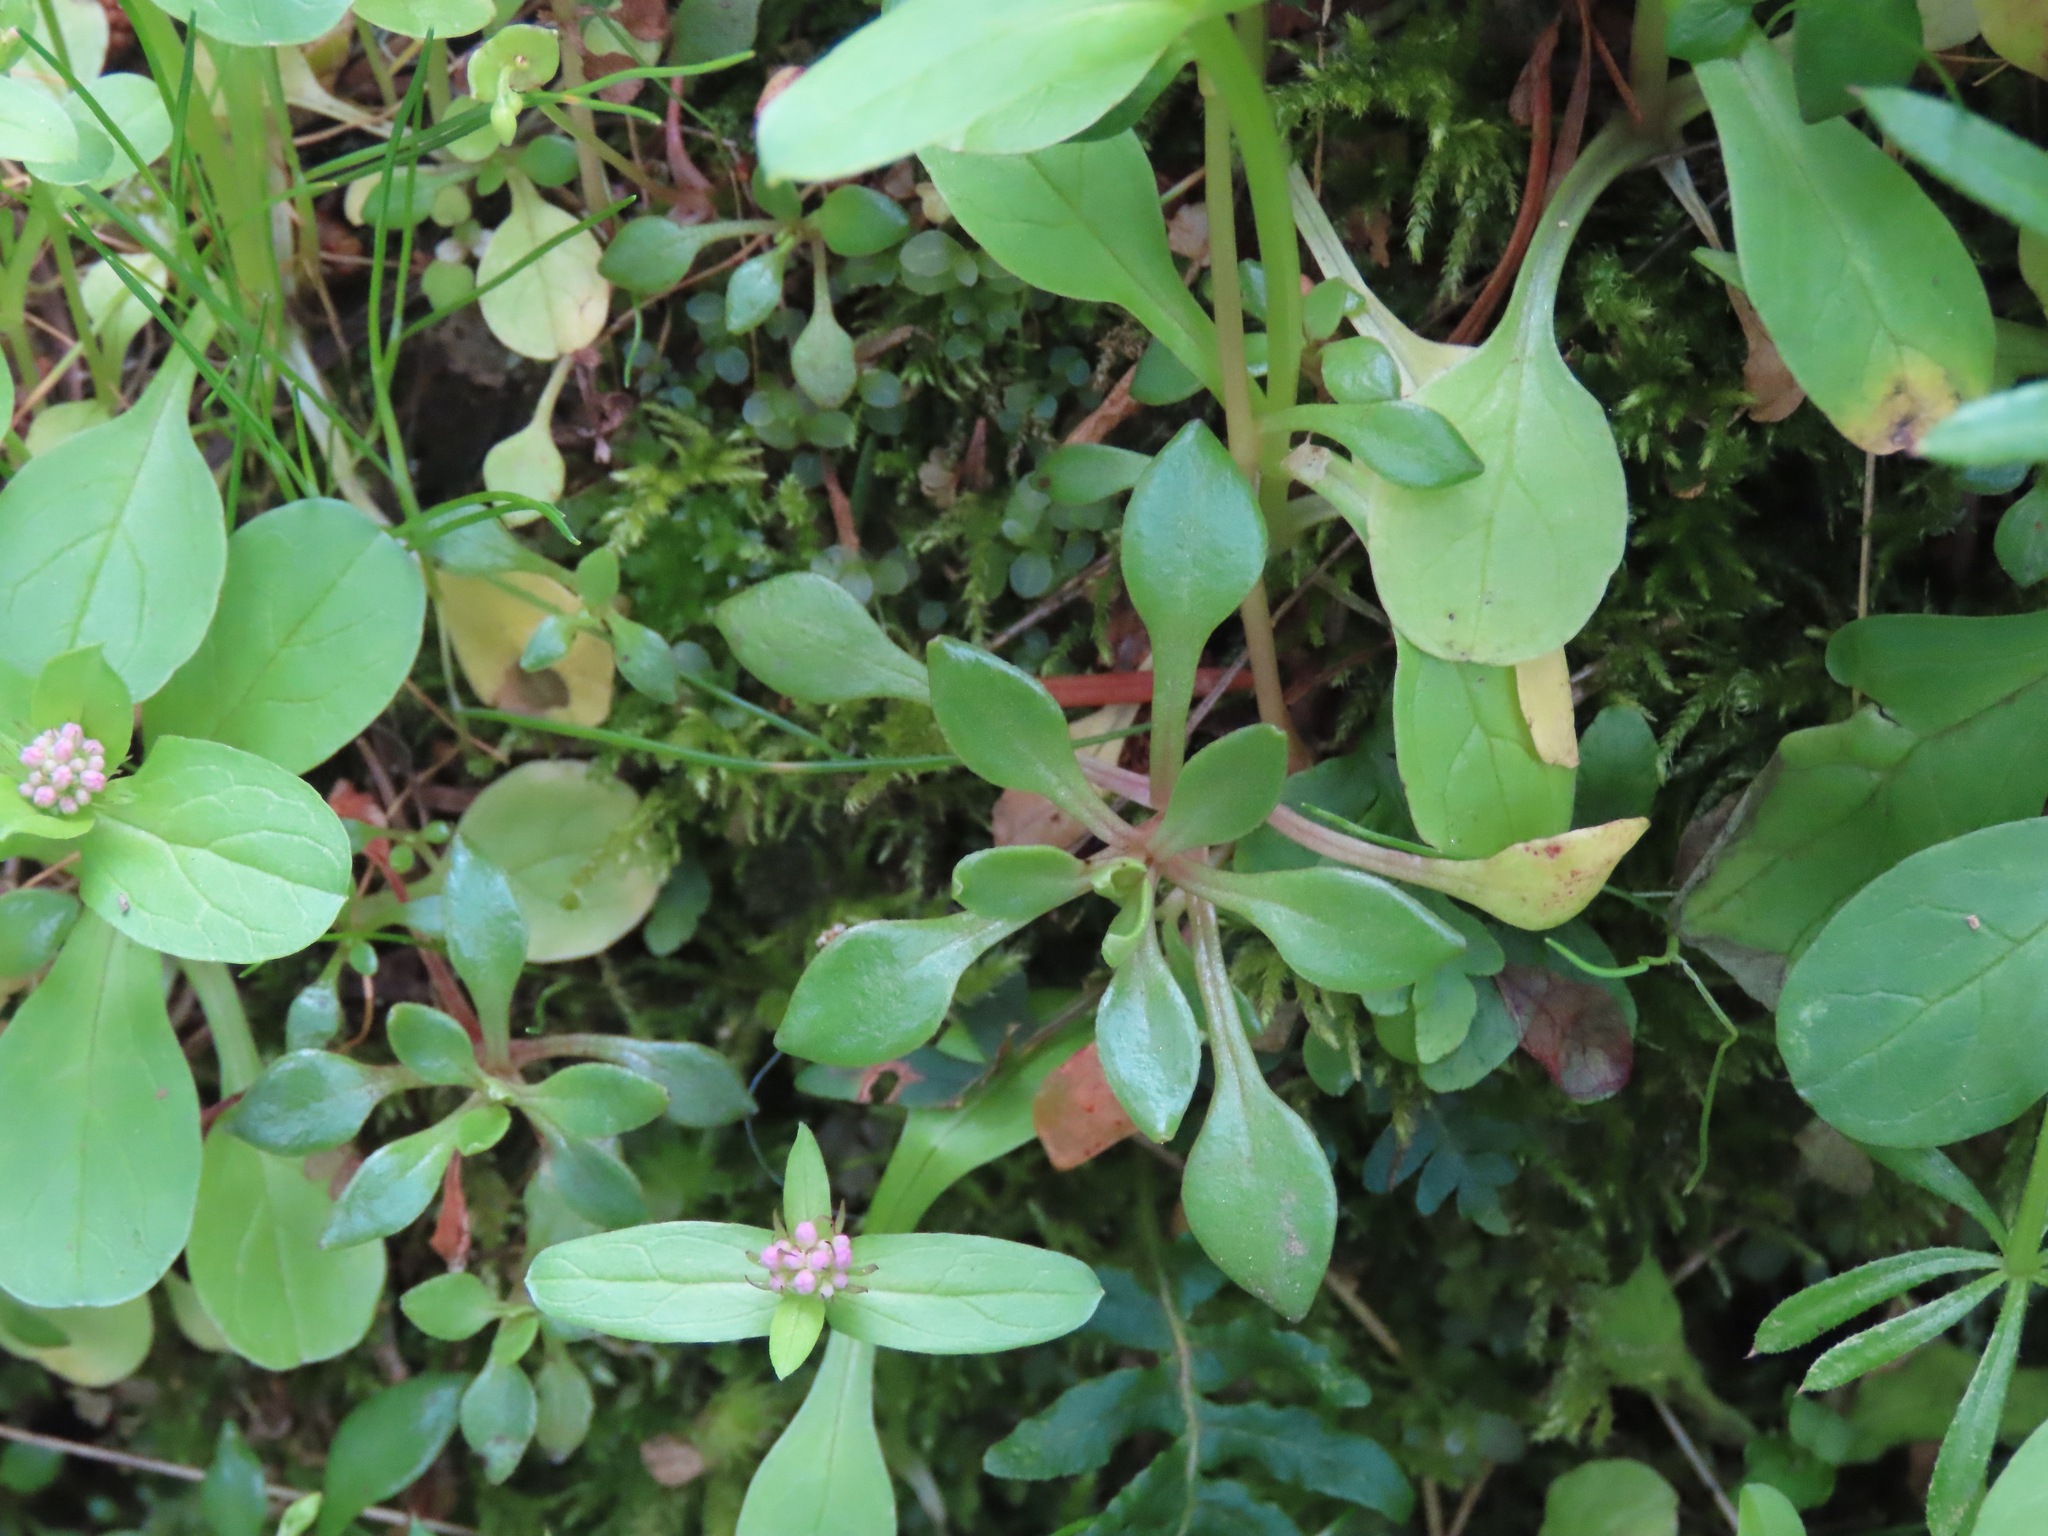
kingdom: Plantae
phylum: Tracheophyta
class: Magnoliopsida
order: Caryophyllales
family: Montiaceae
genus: Montia
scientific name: Montia parvifolia
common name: Small-leaved blinks
